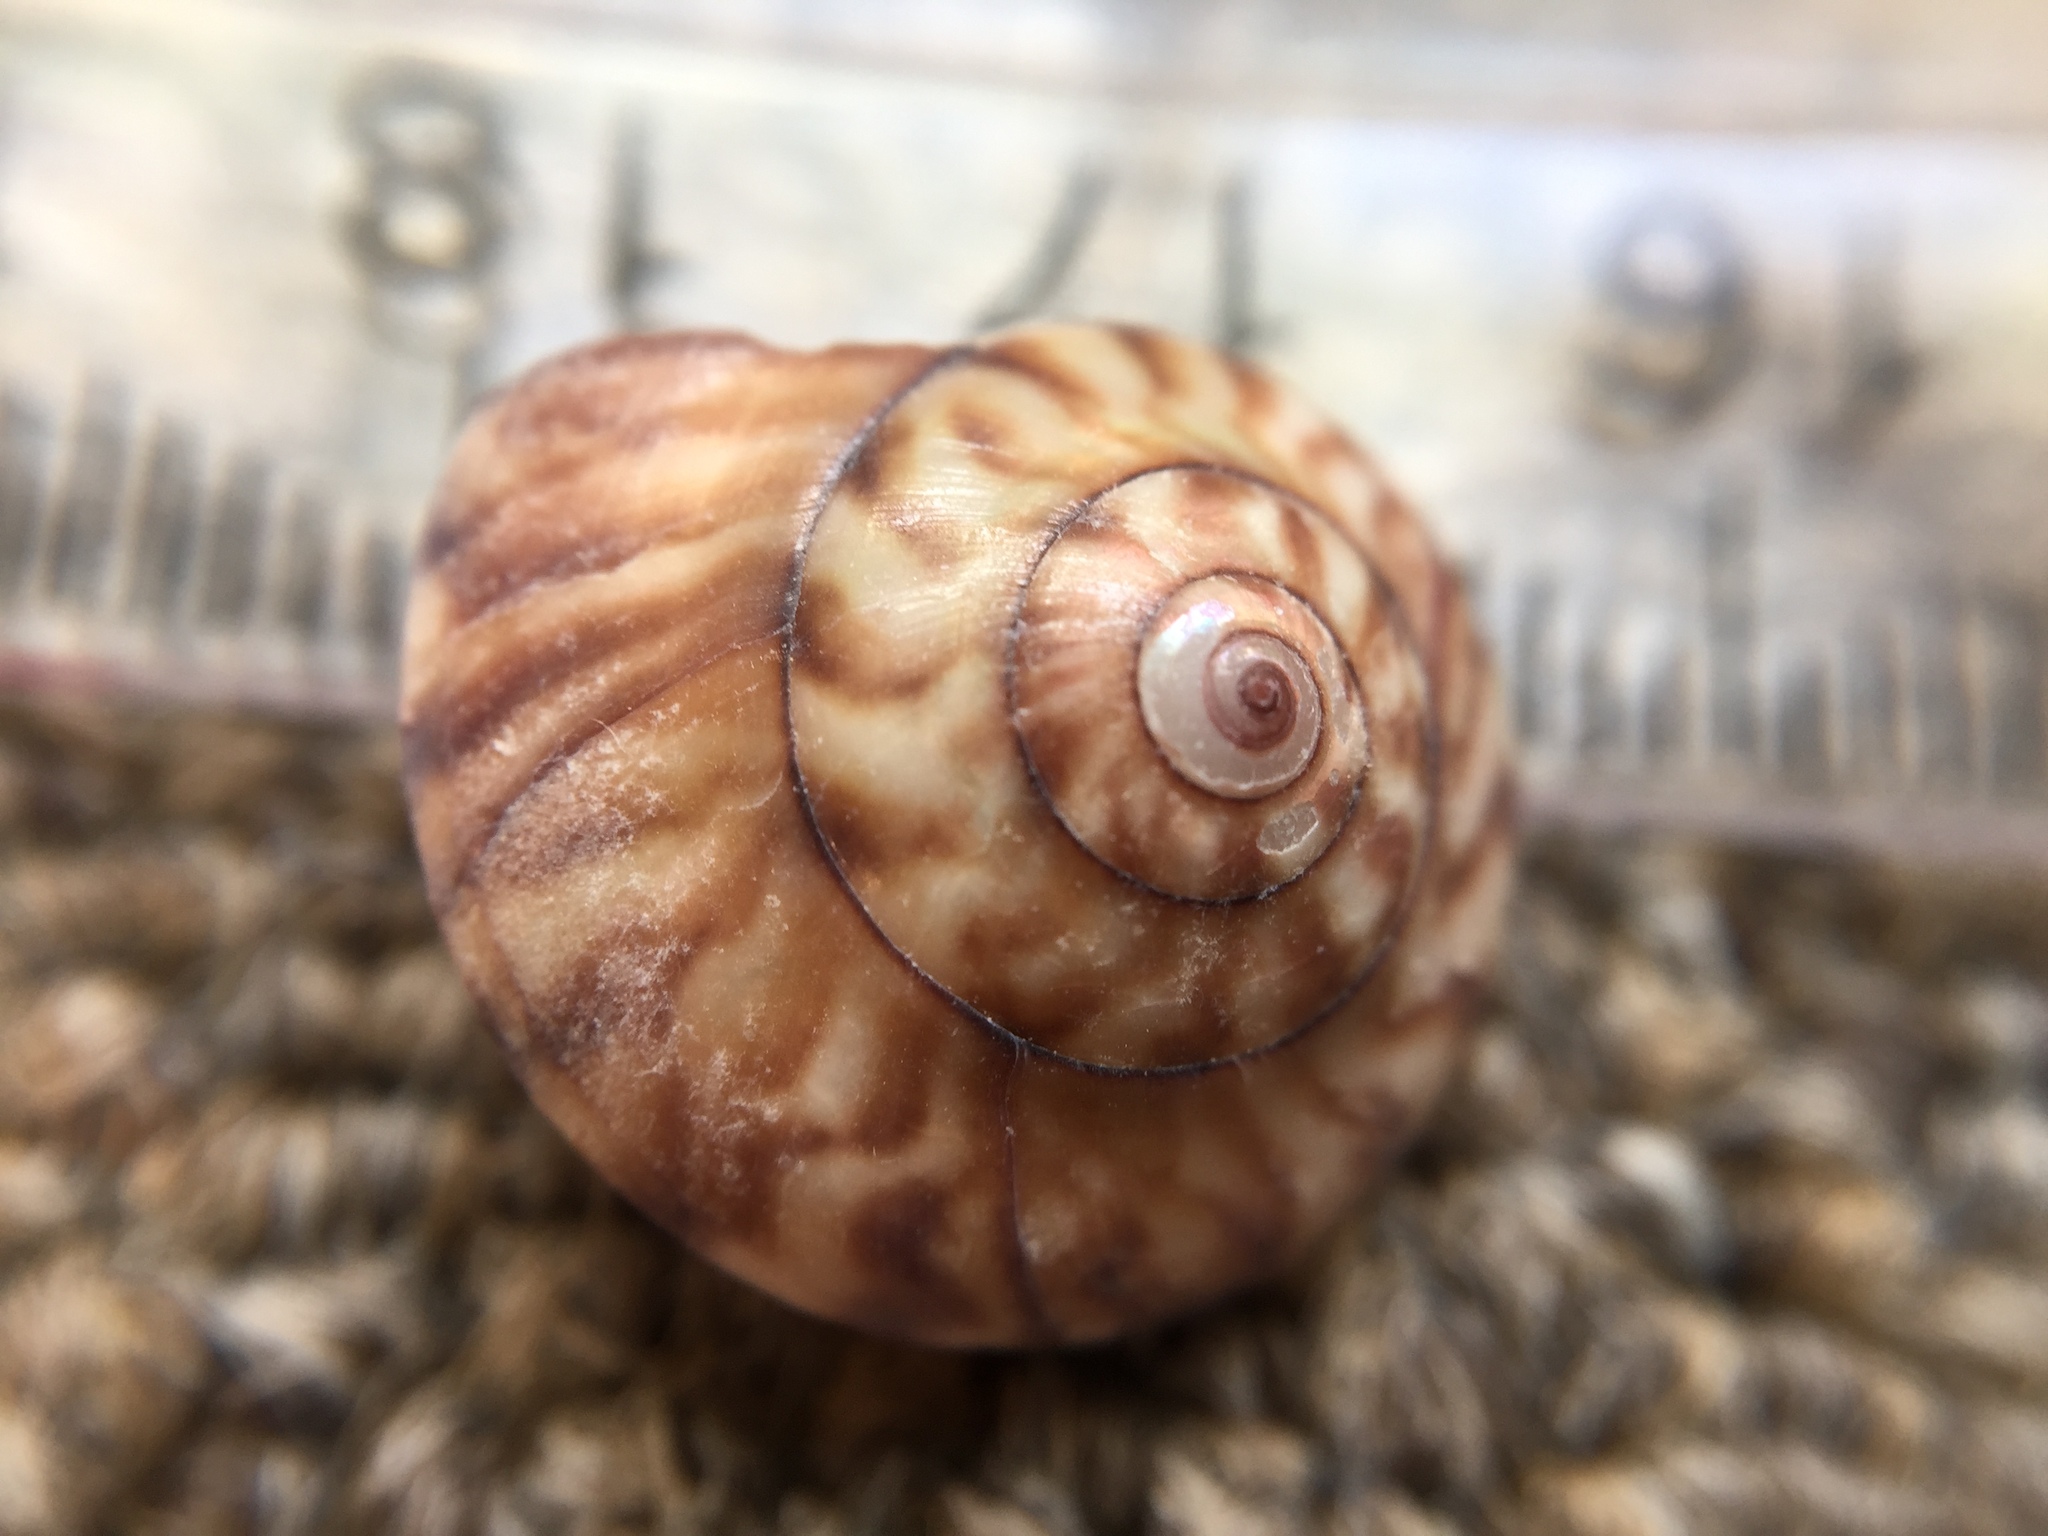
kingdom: Animalia
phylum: Mollusca
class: Gastropoda
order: Trochida
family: Trochidae
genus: Zethalia
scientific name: Zethalia zelandica
